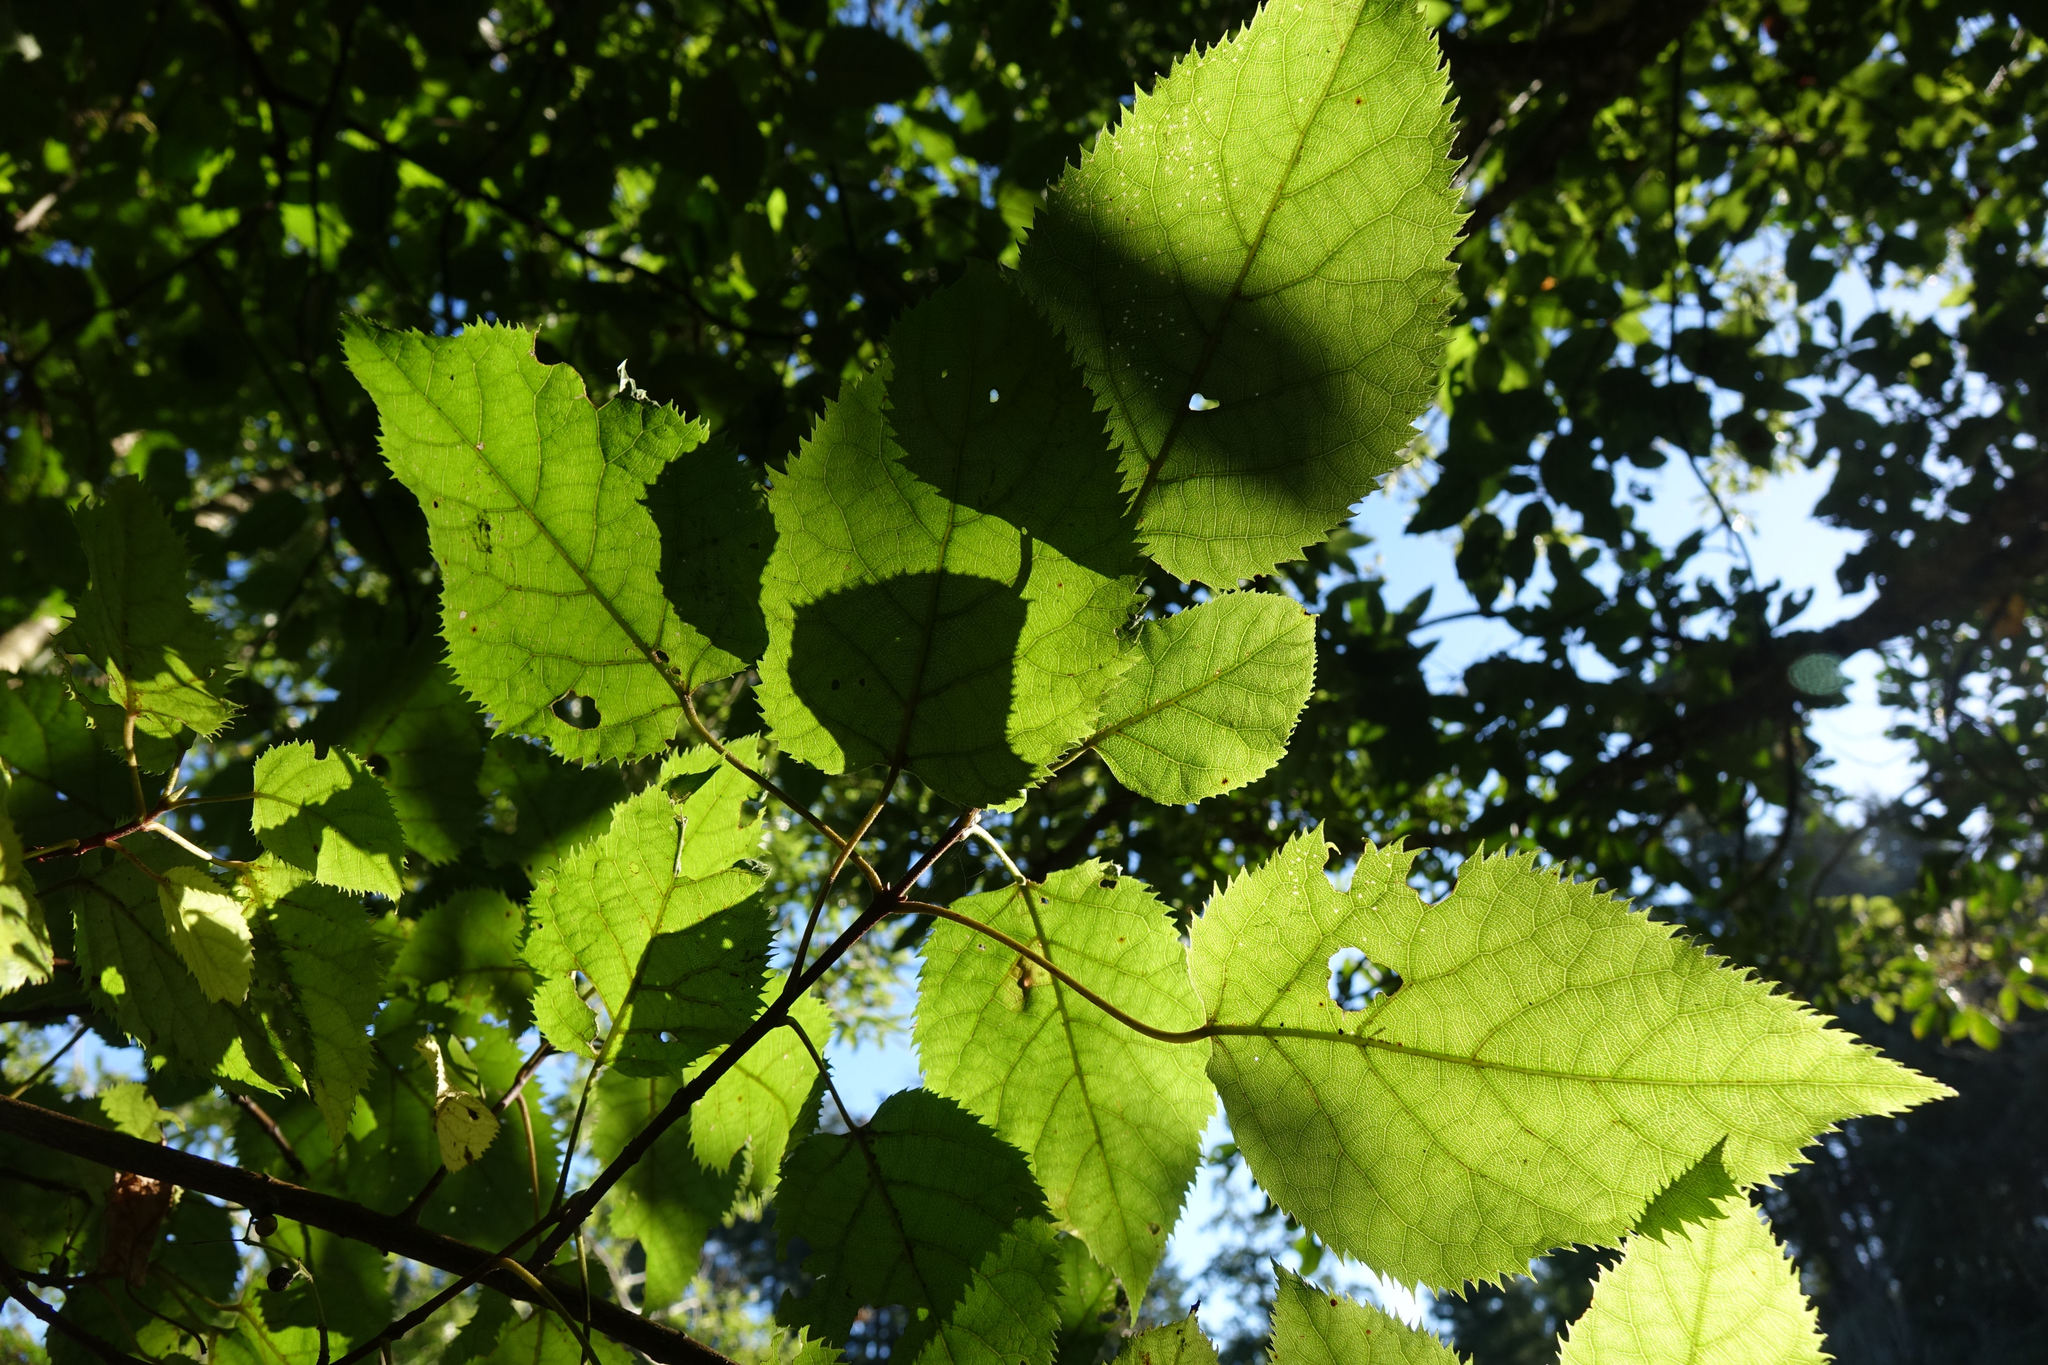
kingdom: Plantae
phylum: Tracheophyta
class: Magnoliopsida
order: Oxalidales
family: Elaeocarpaceae
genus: Aristotelia
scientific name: Aristotelia serrata
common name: New zealand wineberry
